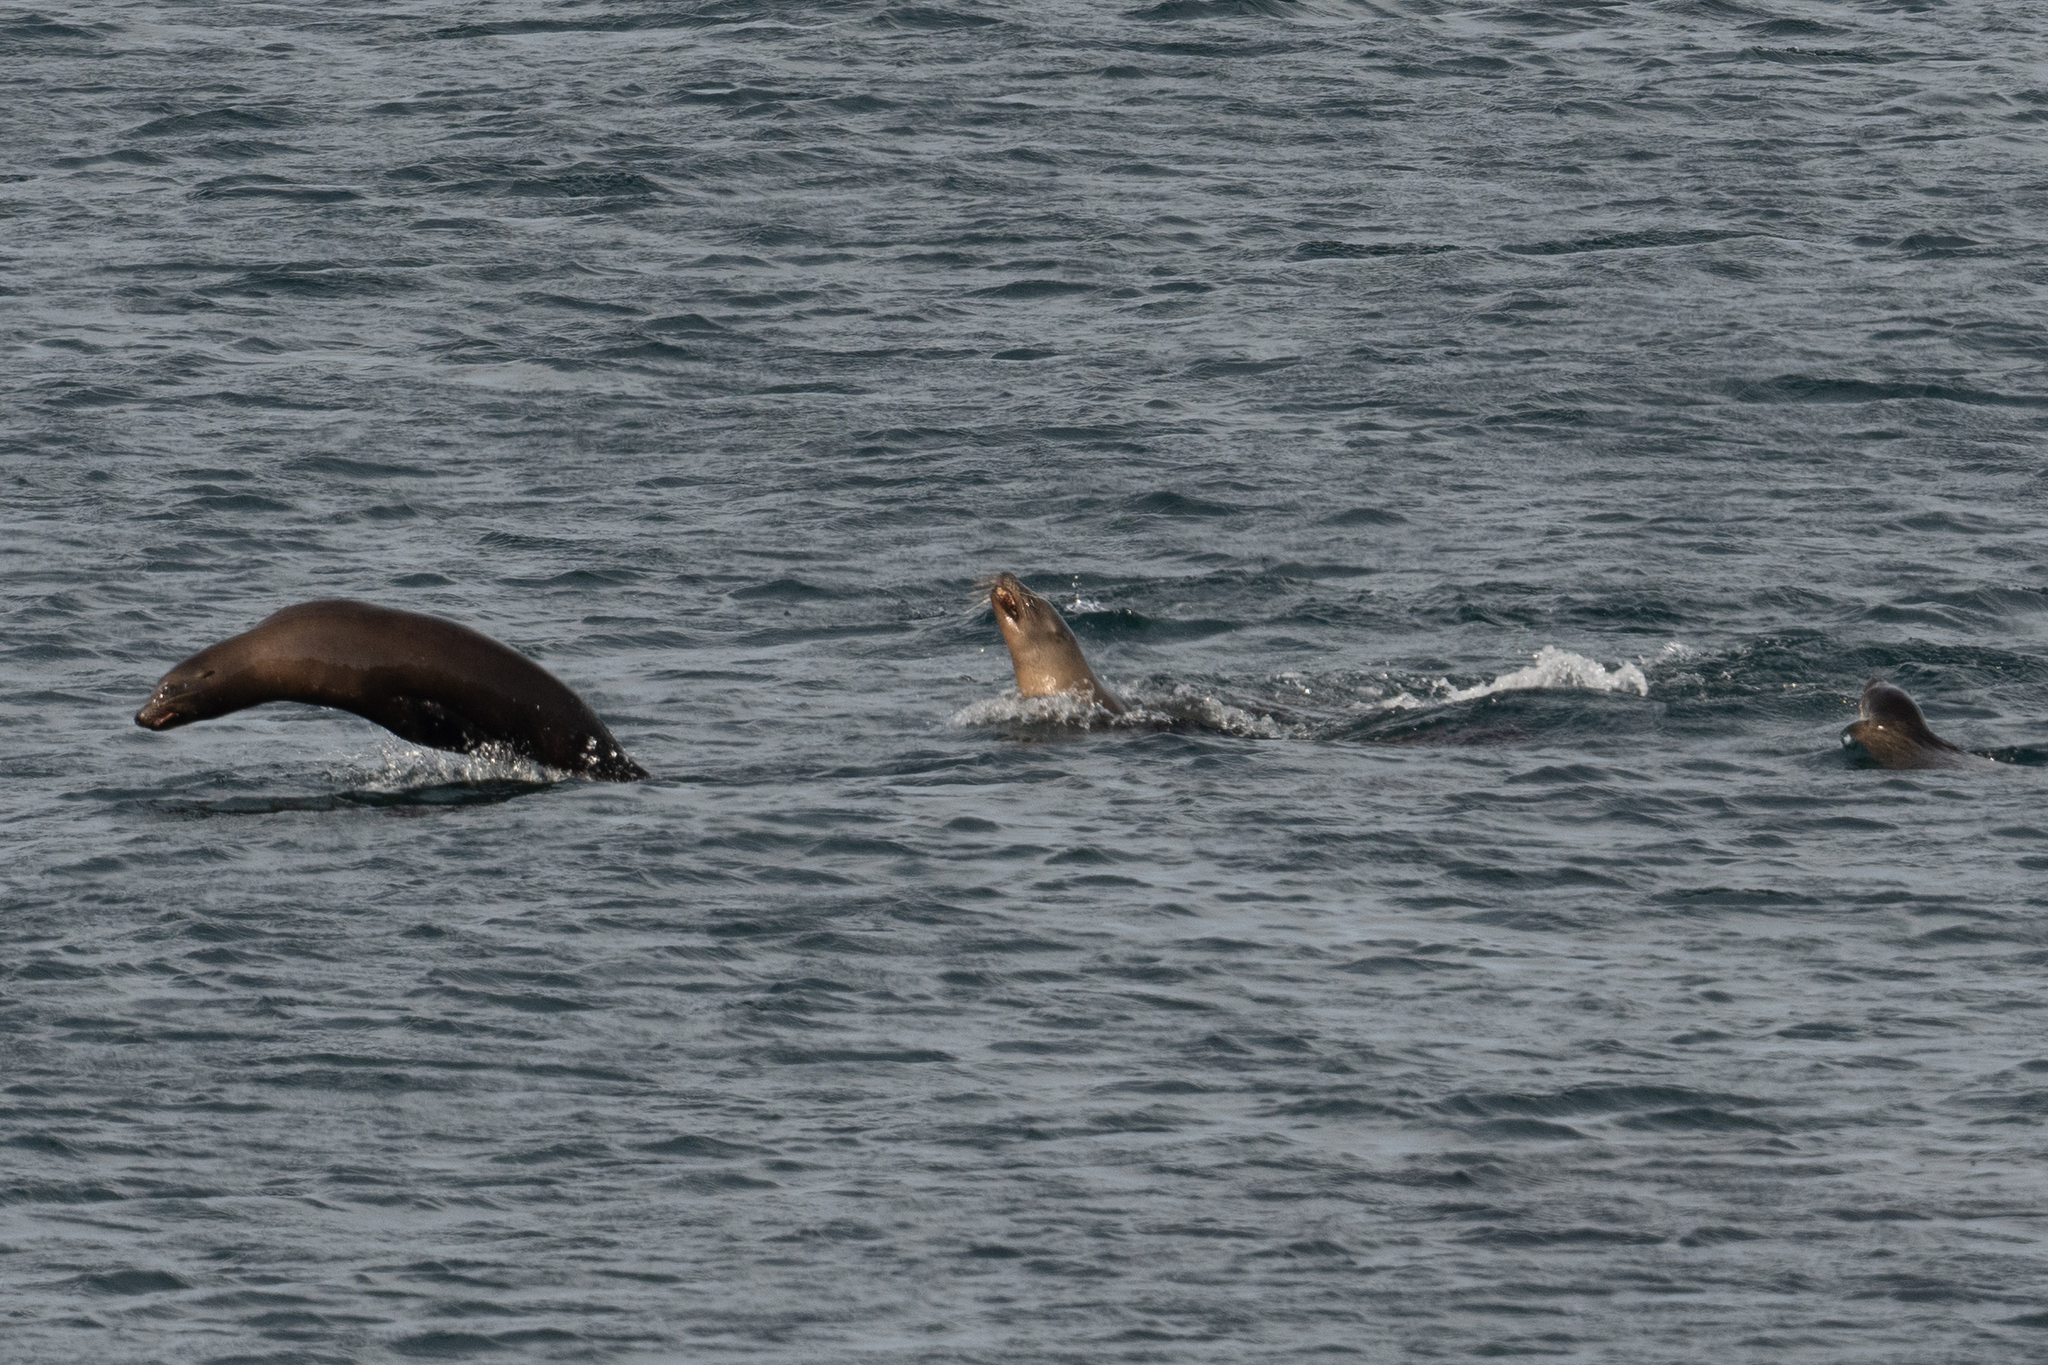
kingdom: Animalia
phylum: Chordata
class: Mammalia
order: Carnivora
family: Otariidae
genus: Zalophus
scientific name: Zalophus californianus
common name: California sea lion
